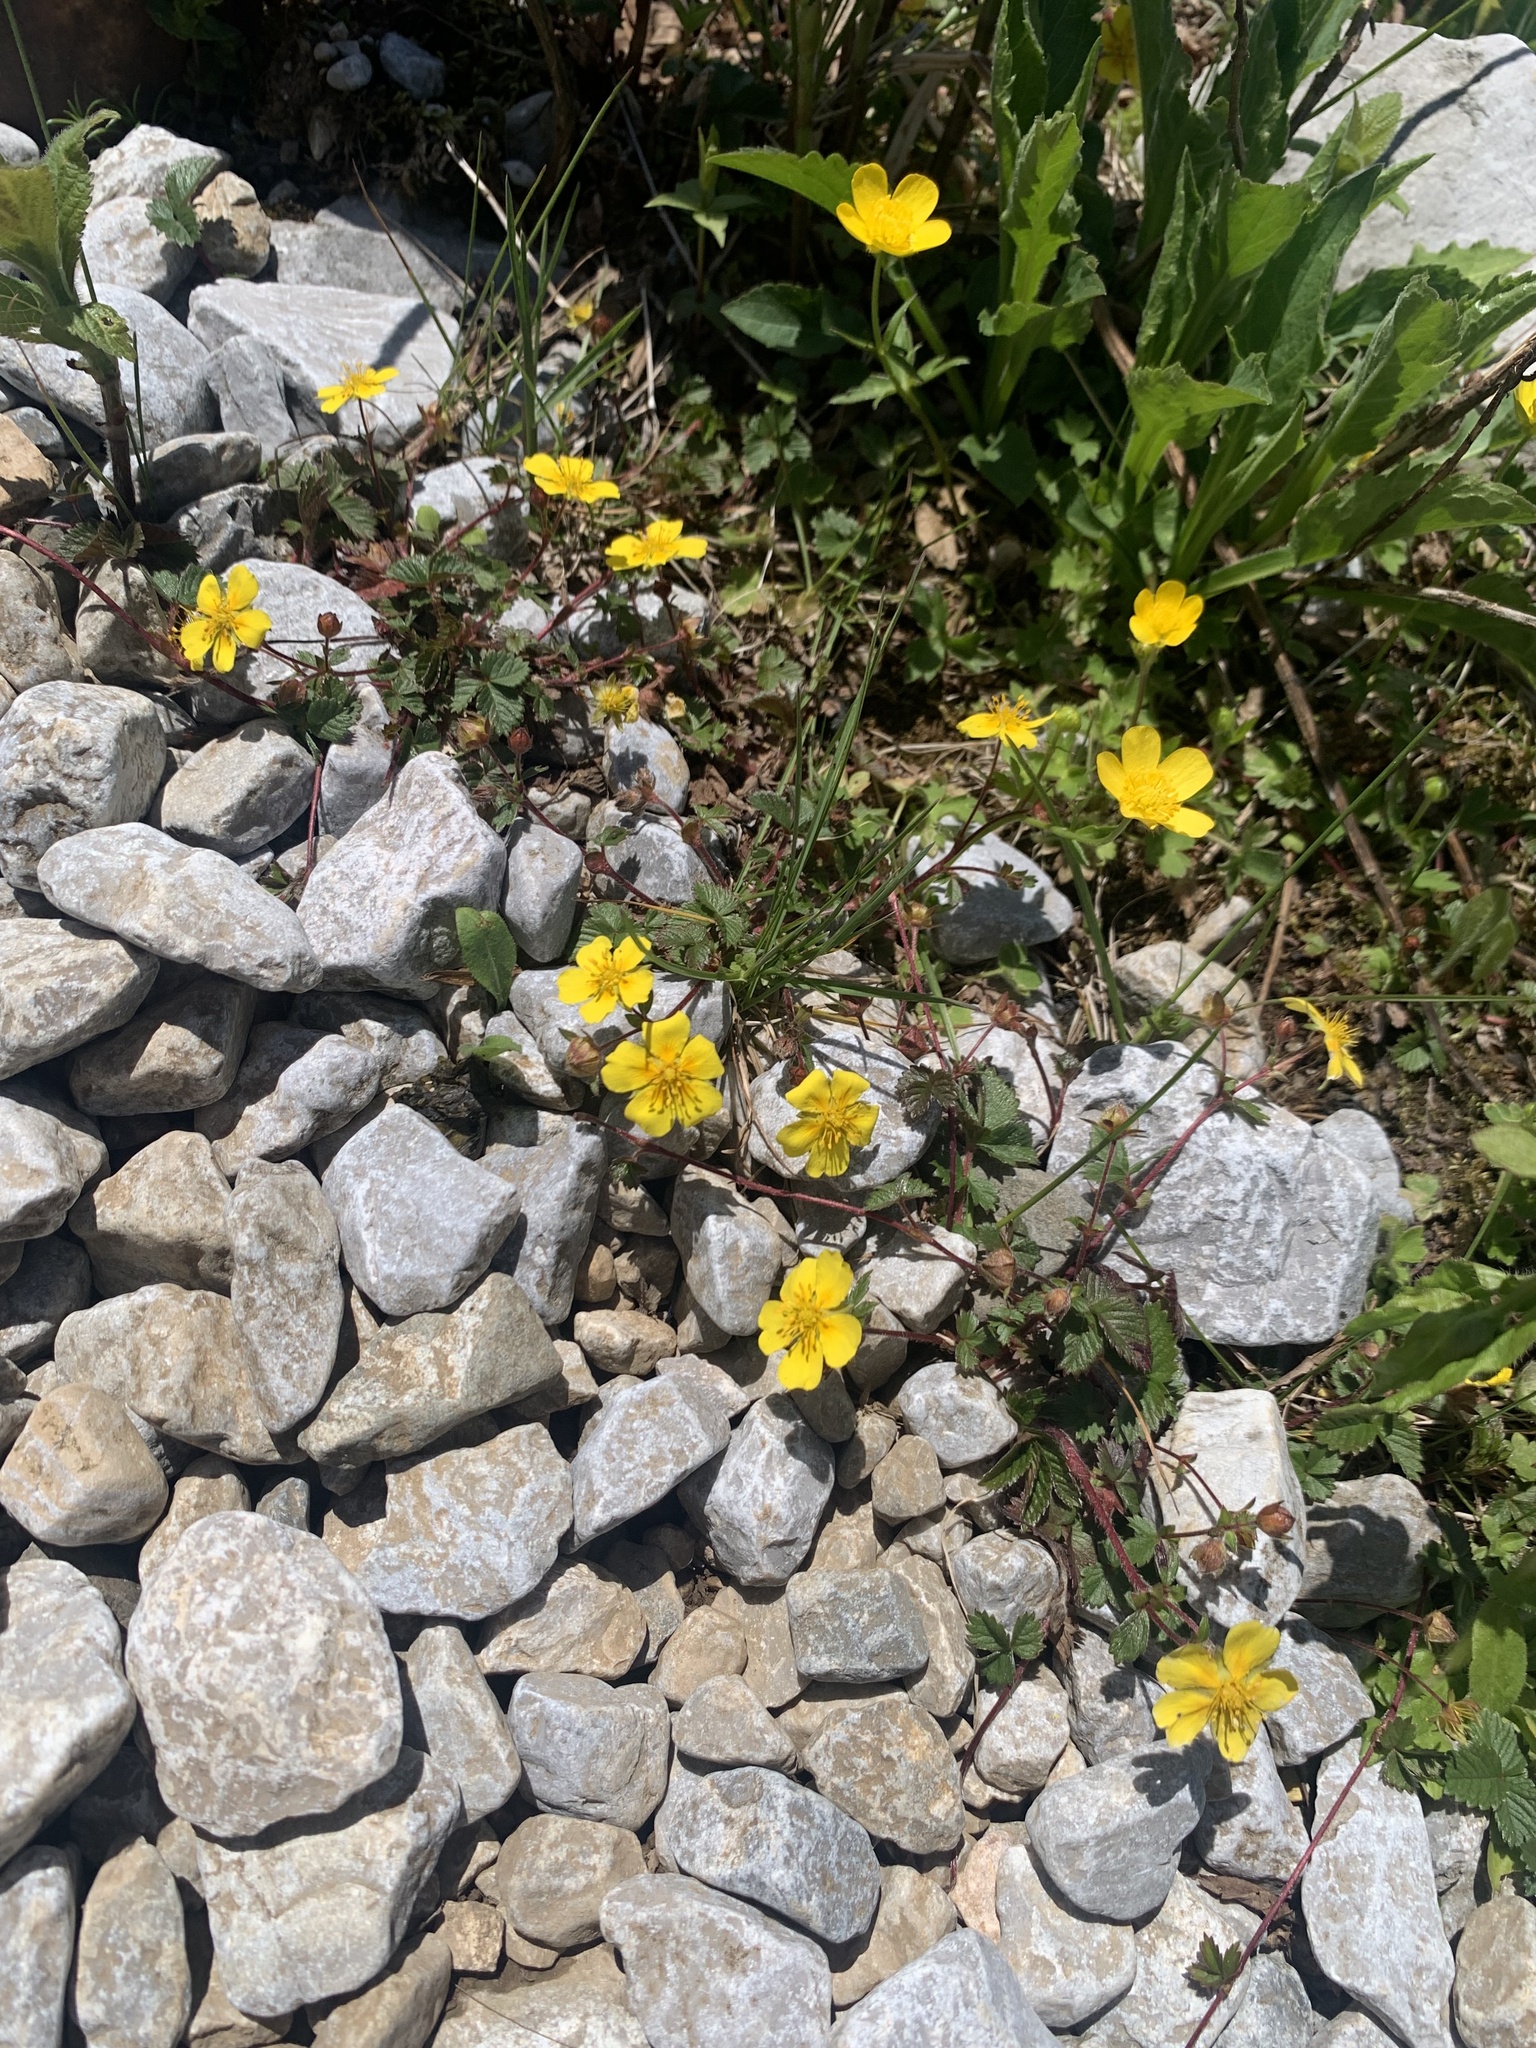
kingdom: Plantae
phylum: Tracheophyta
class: Magnoliopsida
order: Rosales
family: Rosaceae
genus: Potentilla
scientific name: Potentilla stolonifera
